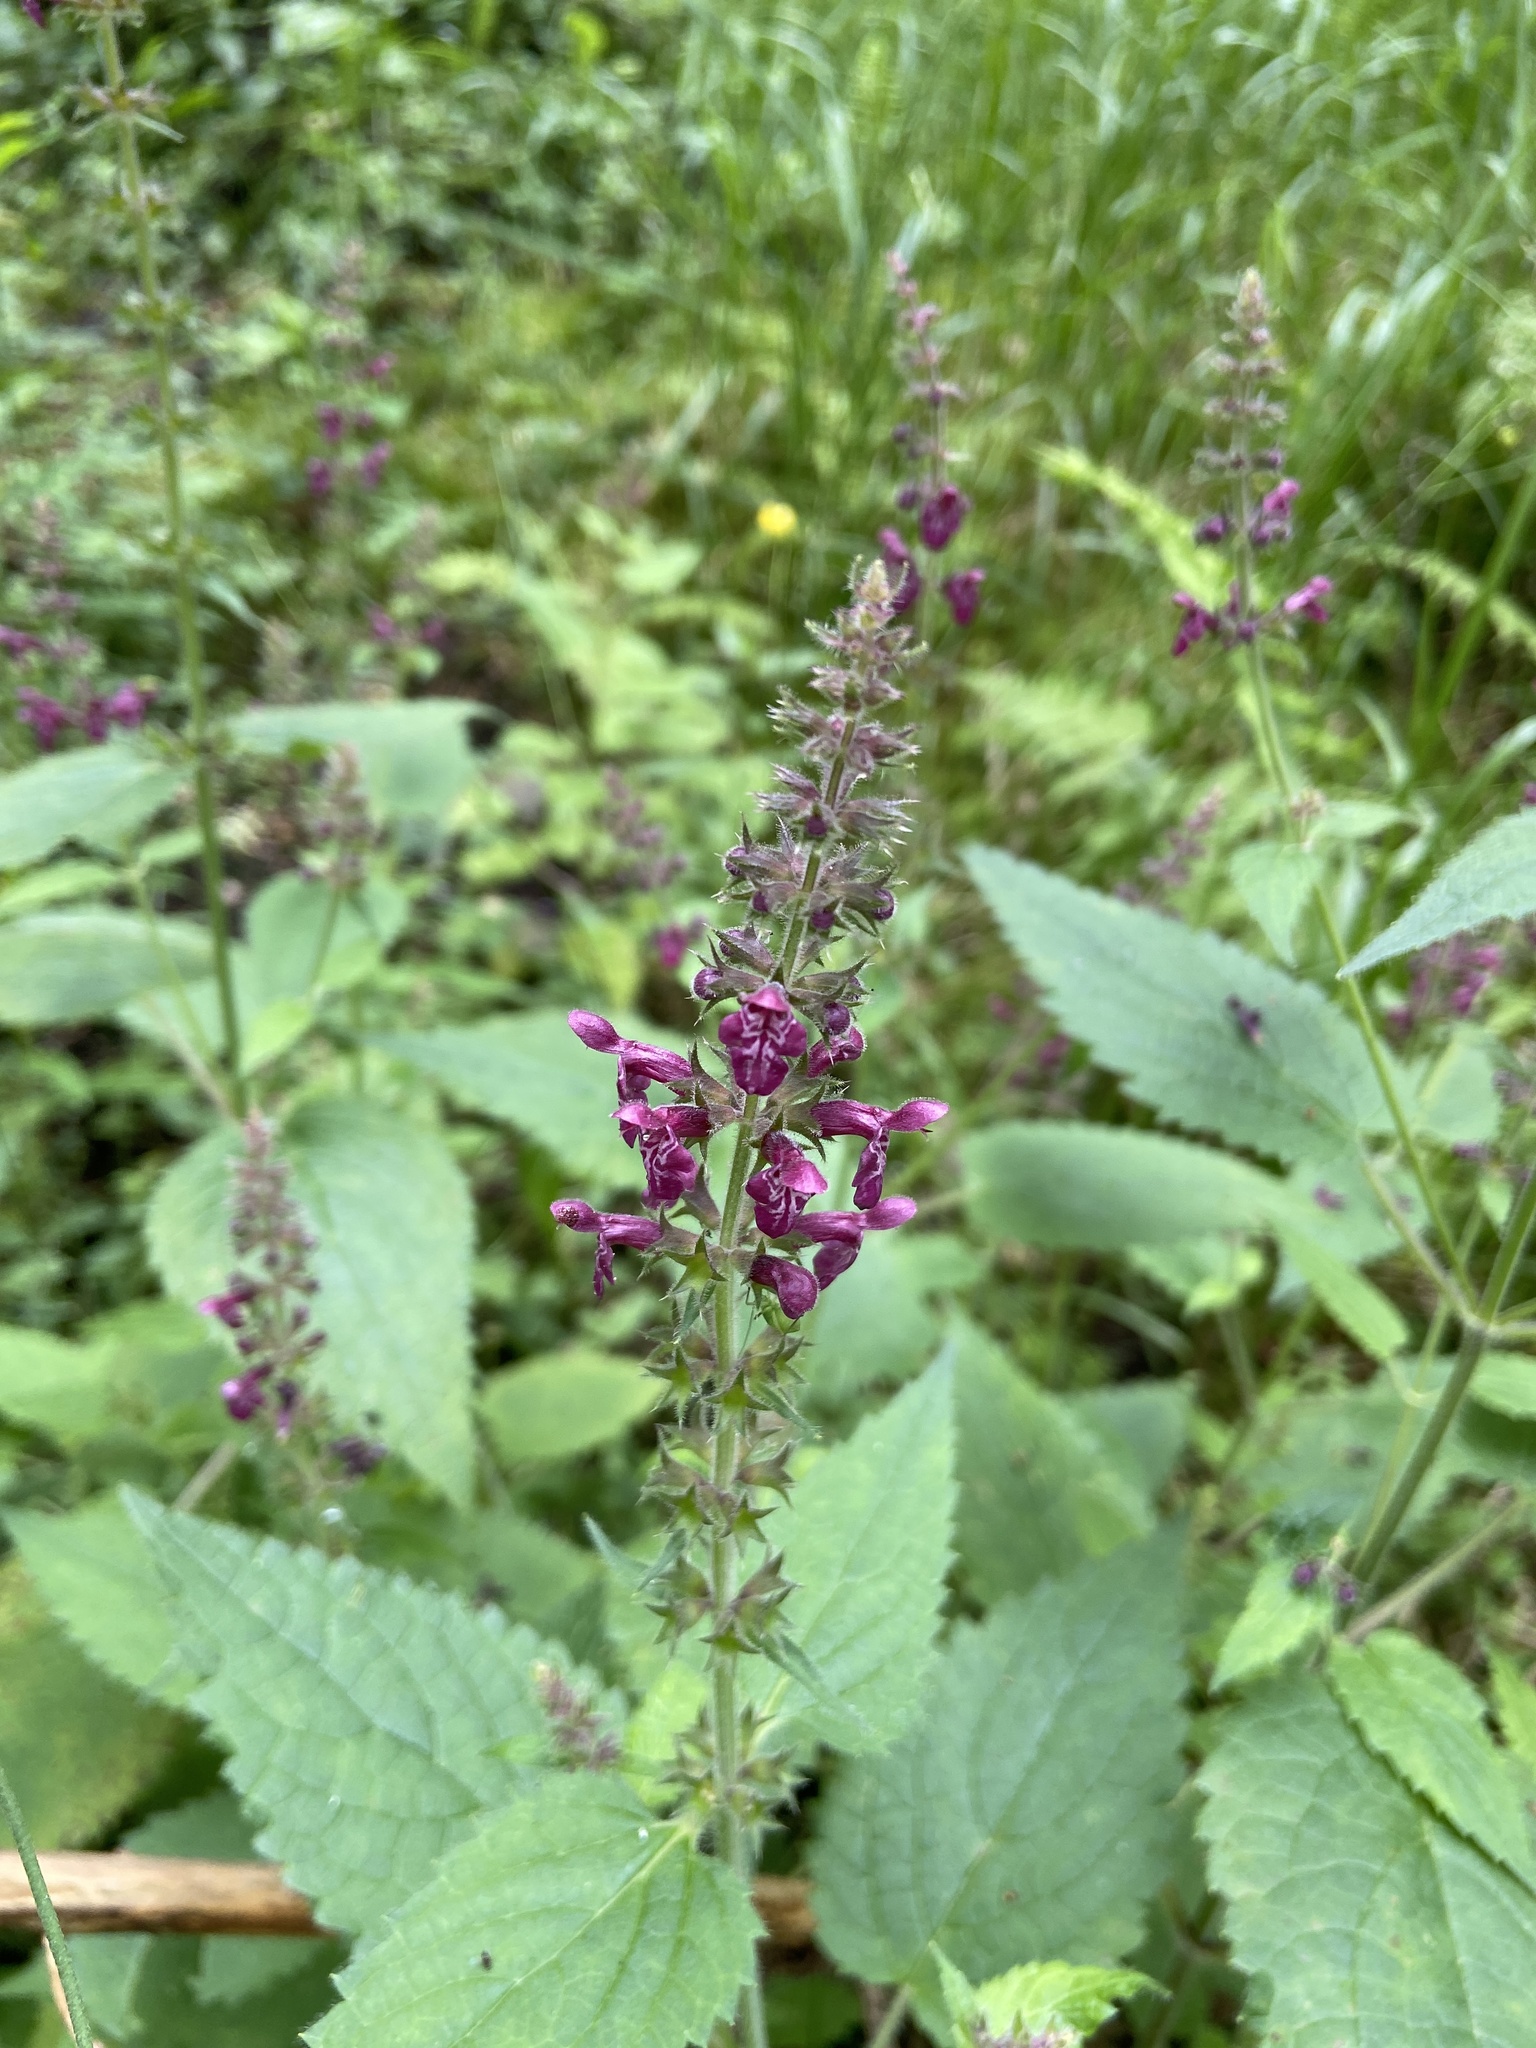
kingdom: Plantae
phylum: Tracheophyta
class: Magnoliopsida
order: Lamiales
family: Lamiaceae
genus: Stachys
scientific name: Stachys sylvatica
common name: Hedge woundwort
